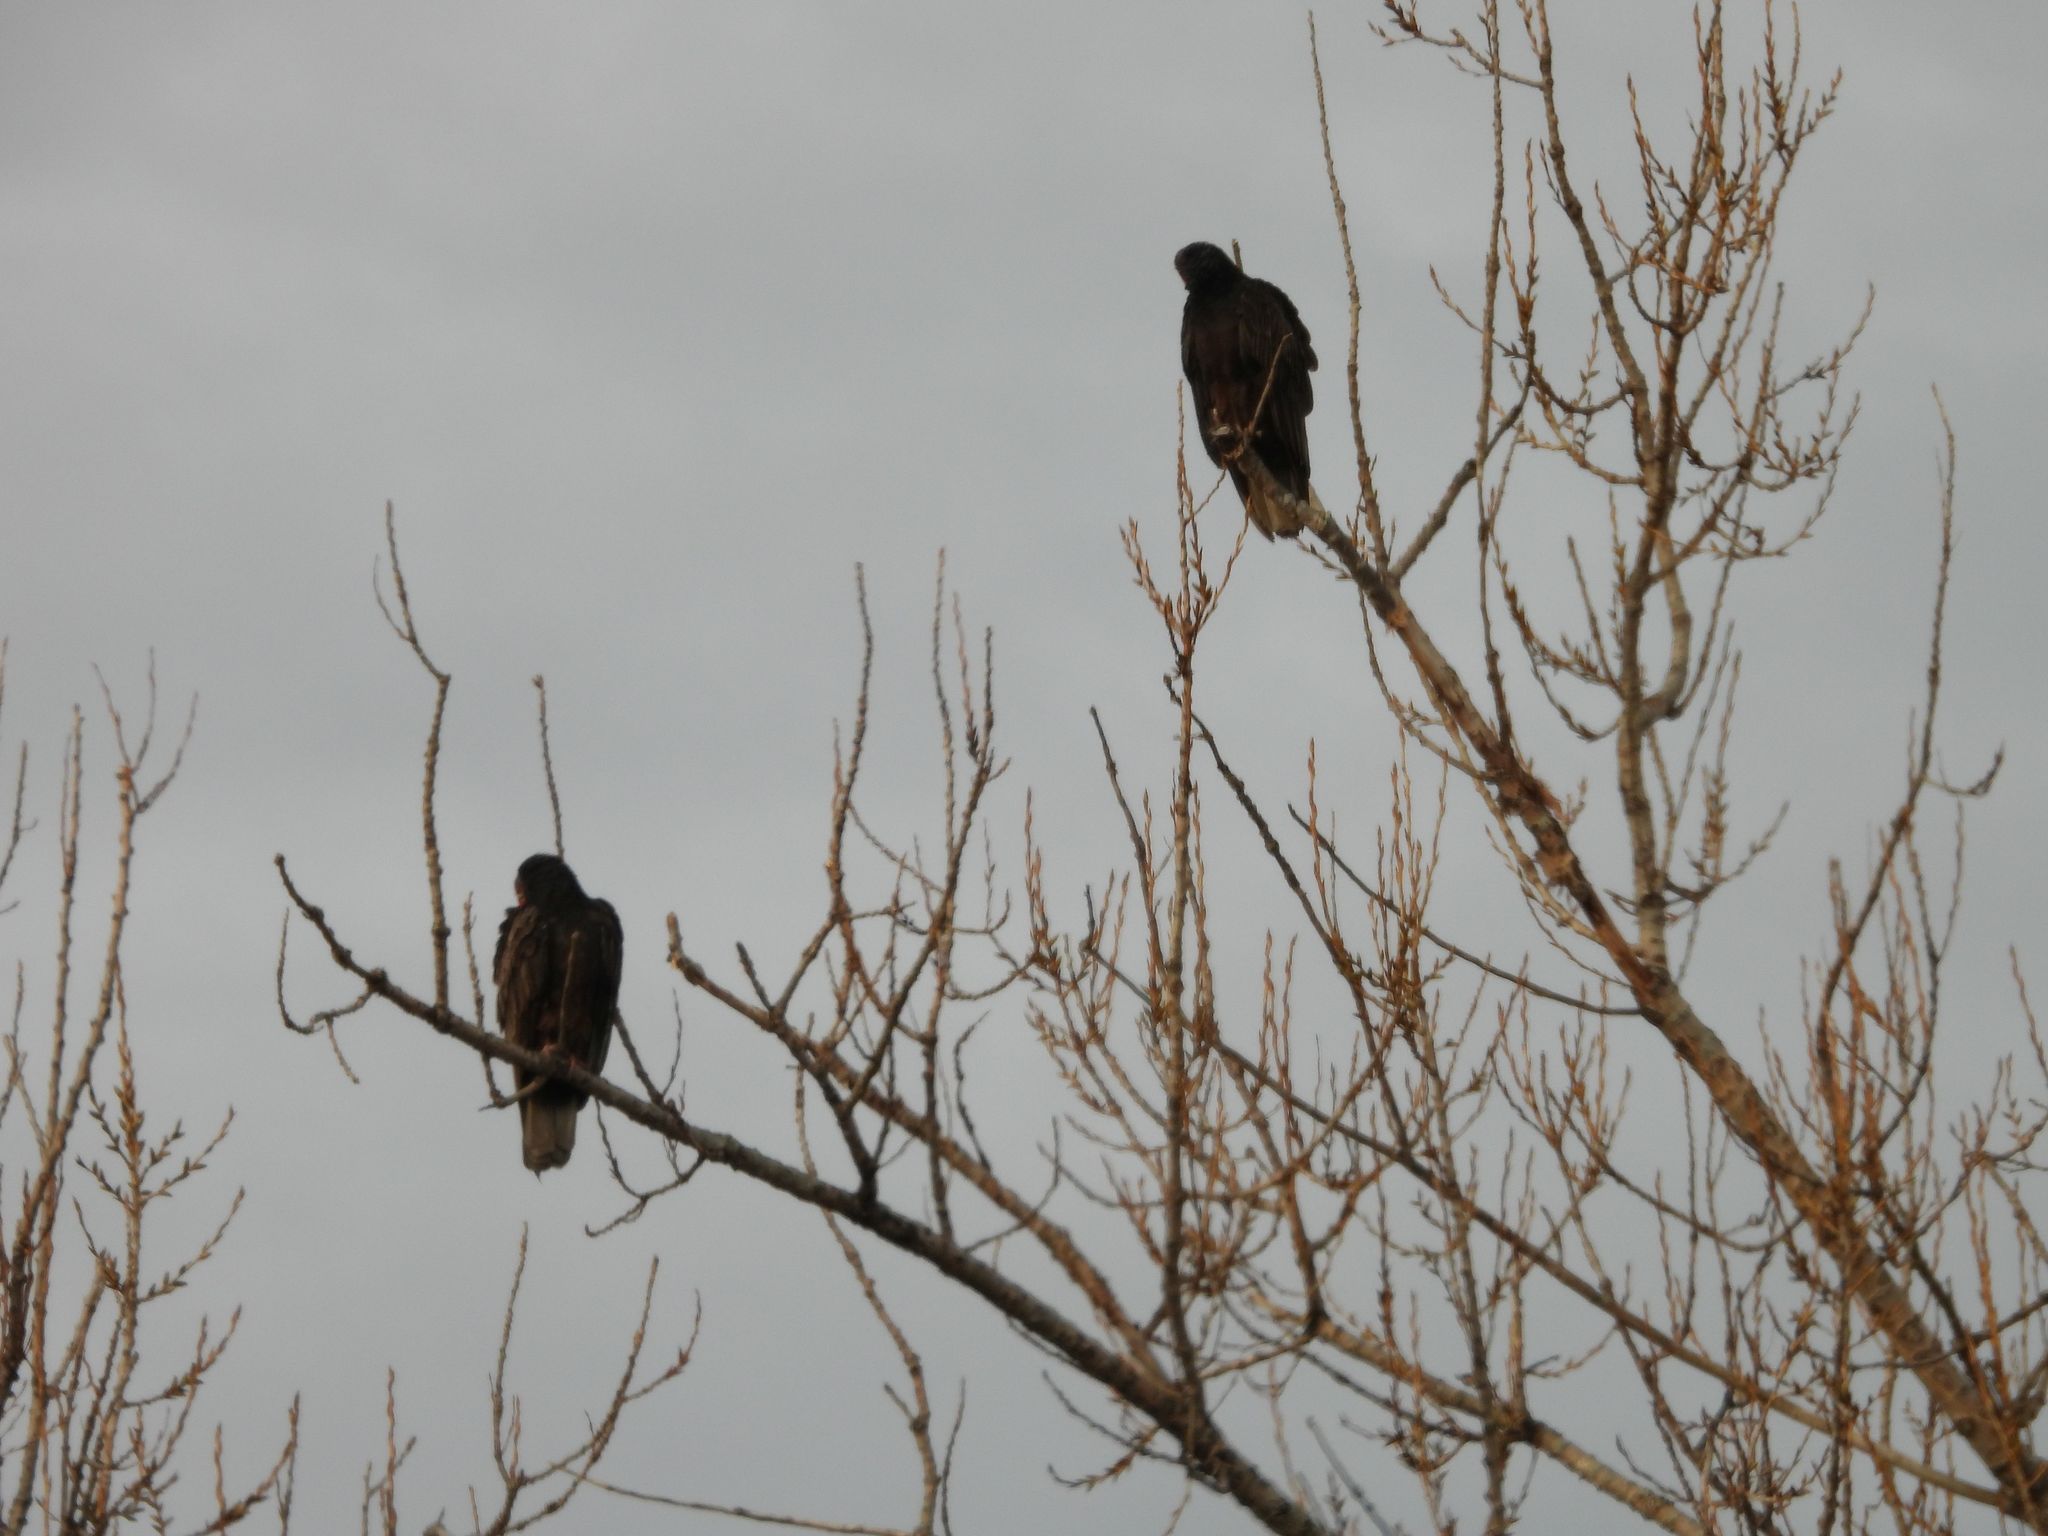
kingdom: Animalia
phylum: Chordata
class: Aves
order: Accipitriformes
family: Cathartidae
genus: Cathartes
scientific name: Cathartes aura
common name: Turkey vulture
